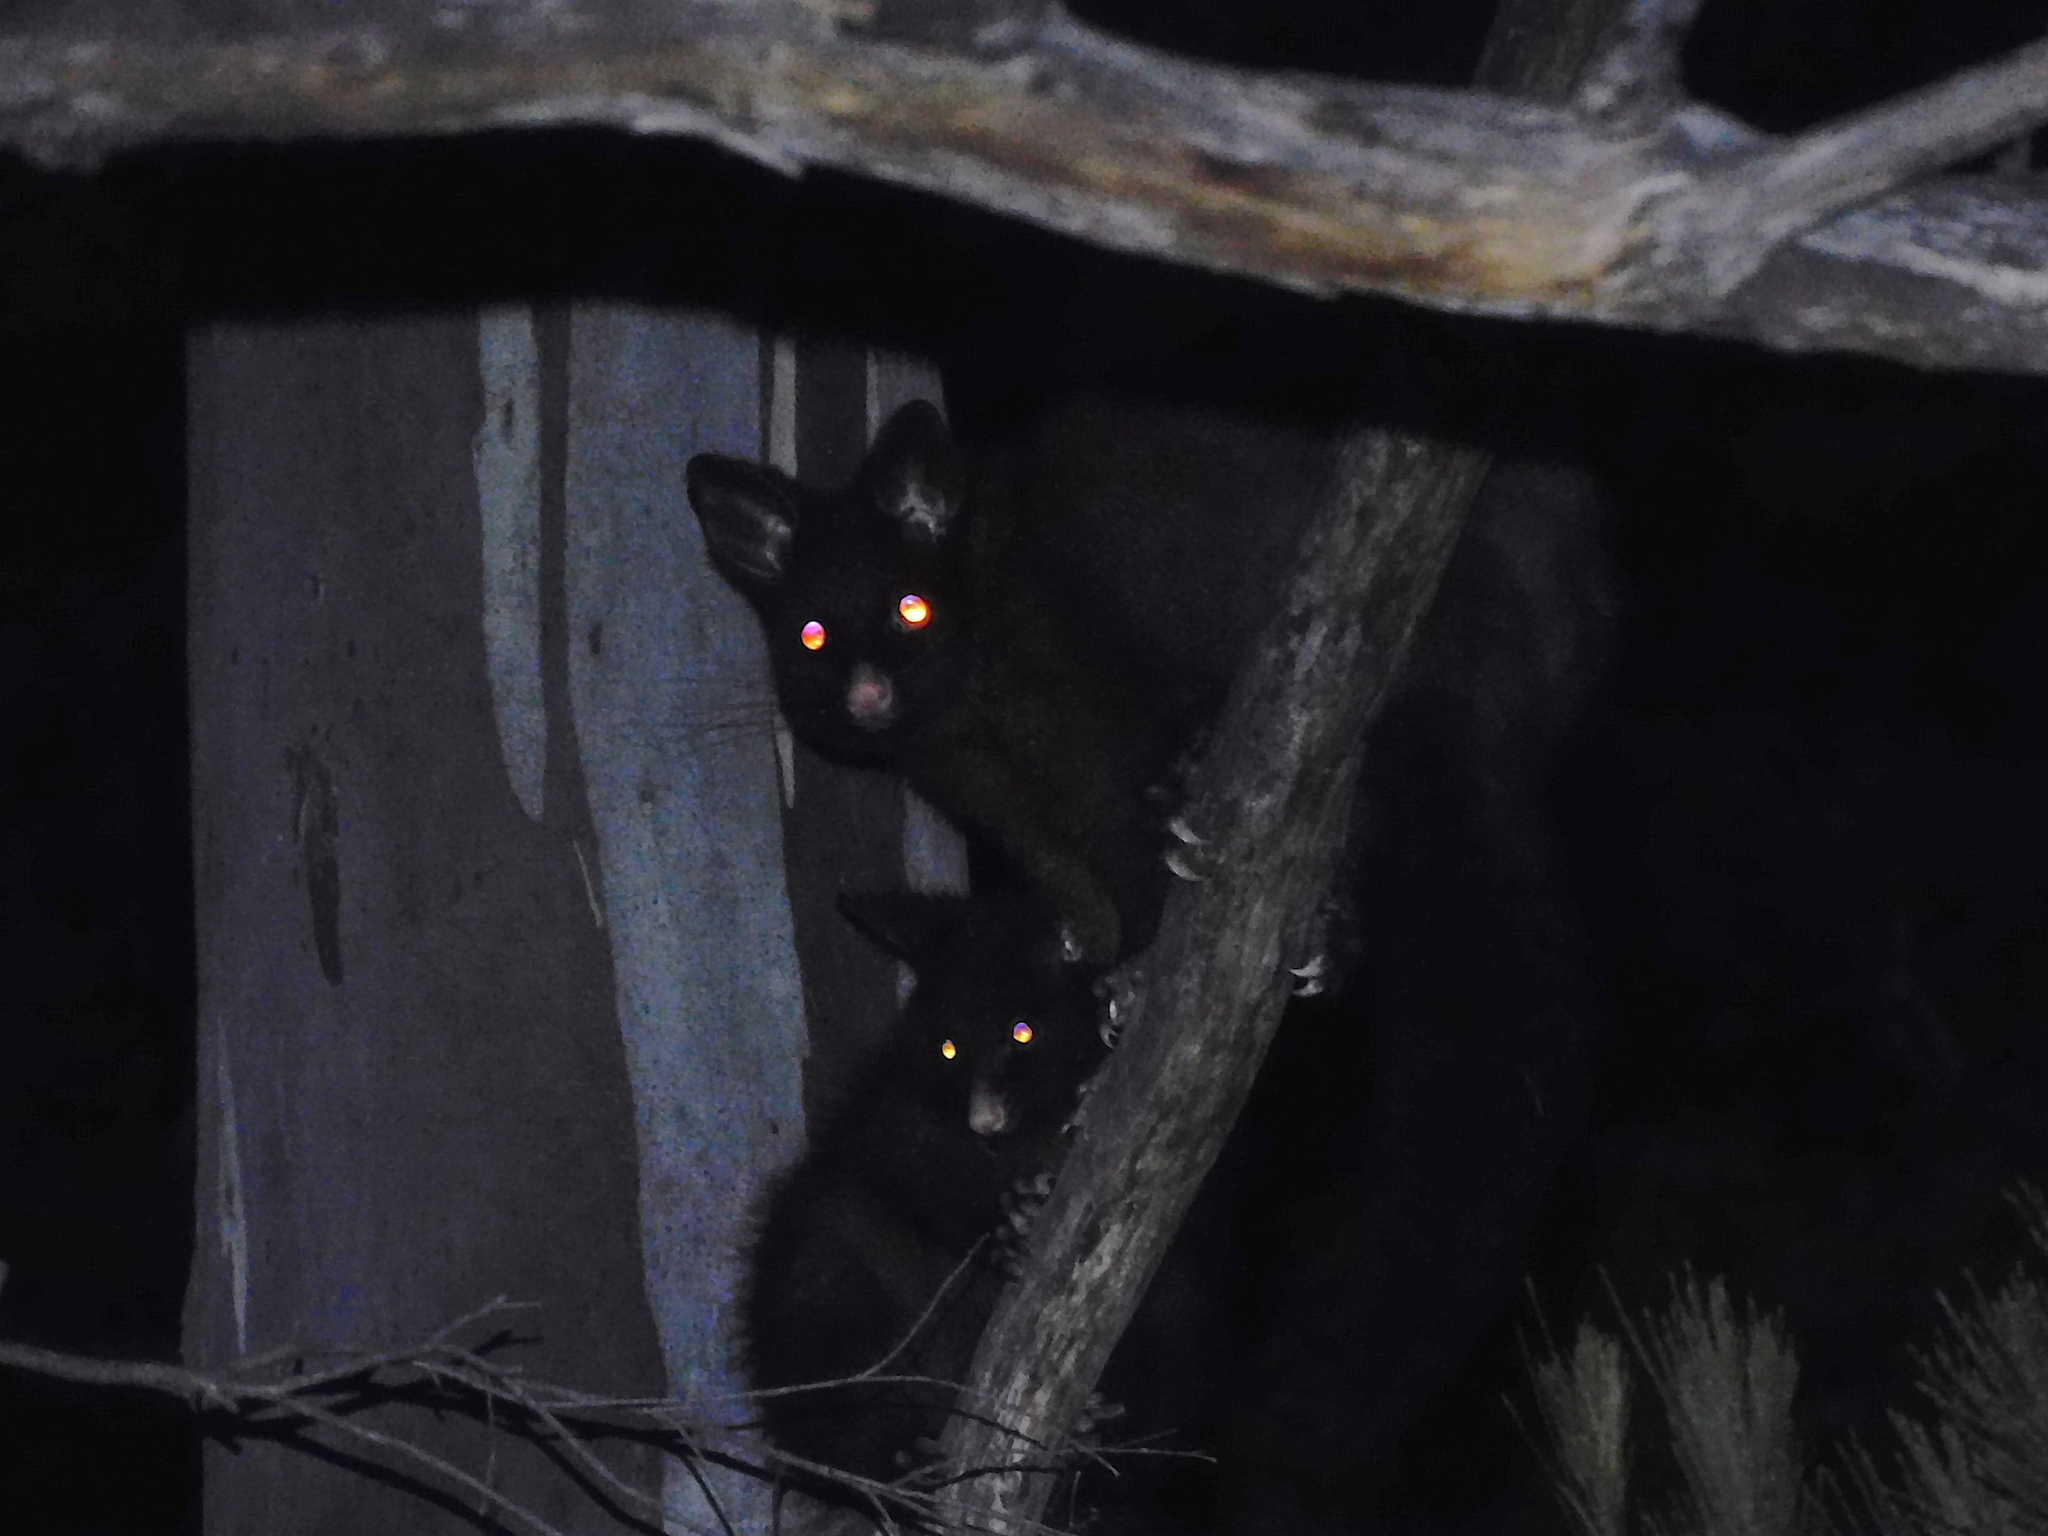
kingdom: Animalia
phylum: Chordata
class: Mammalia
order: Diprotodontia
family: Phalangeridae
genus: Trichosurus
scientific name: Trichosurus vulpecula
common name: Common brushtail
